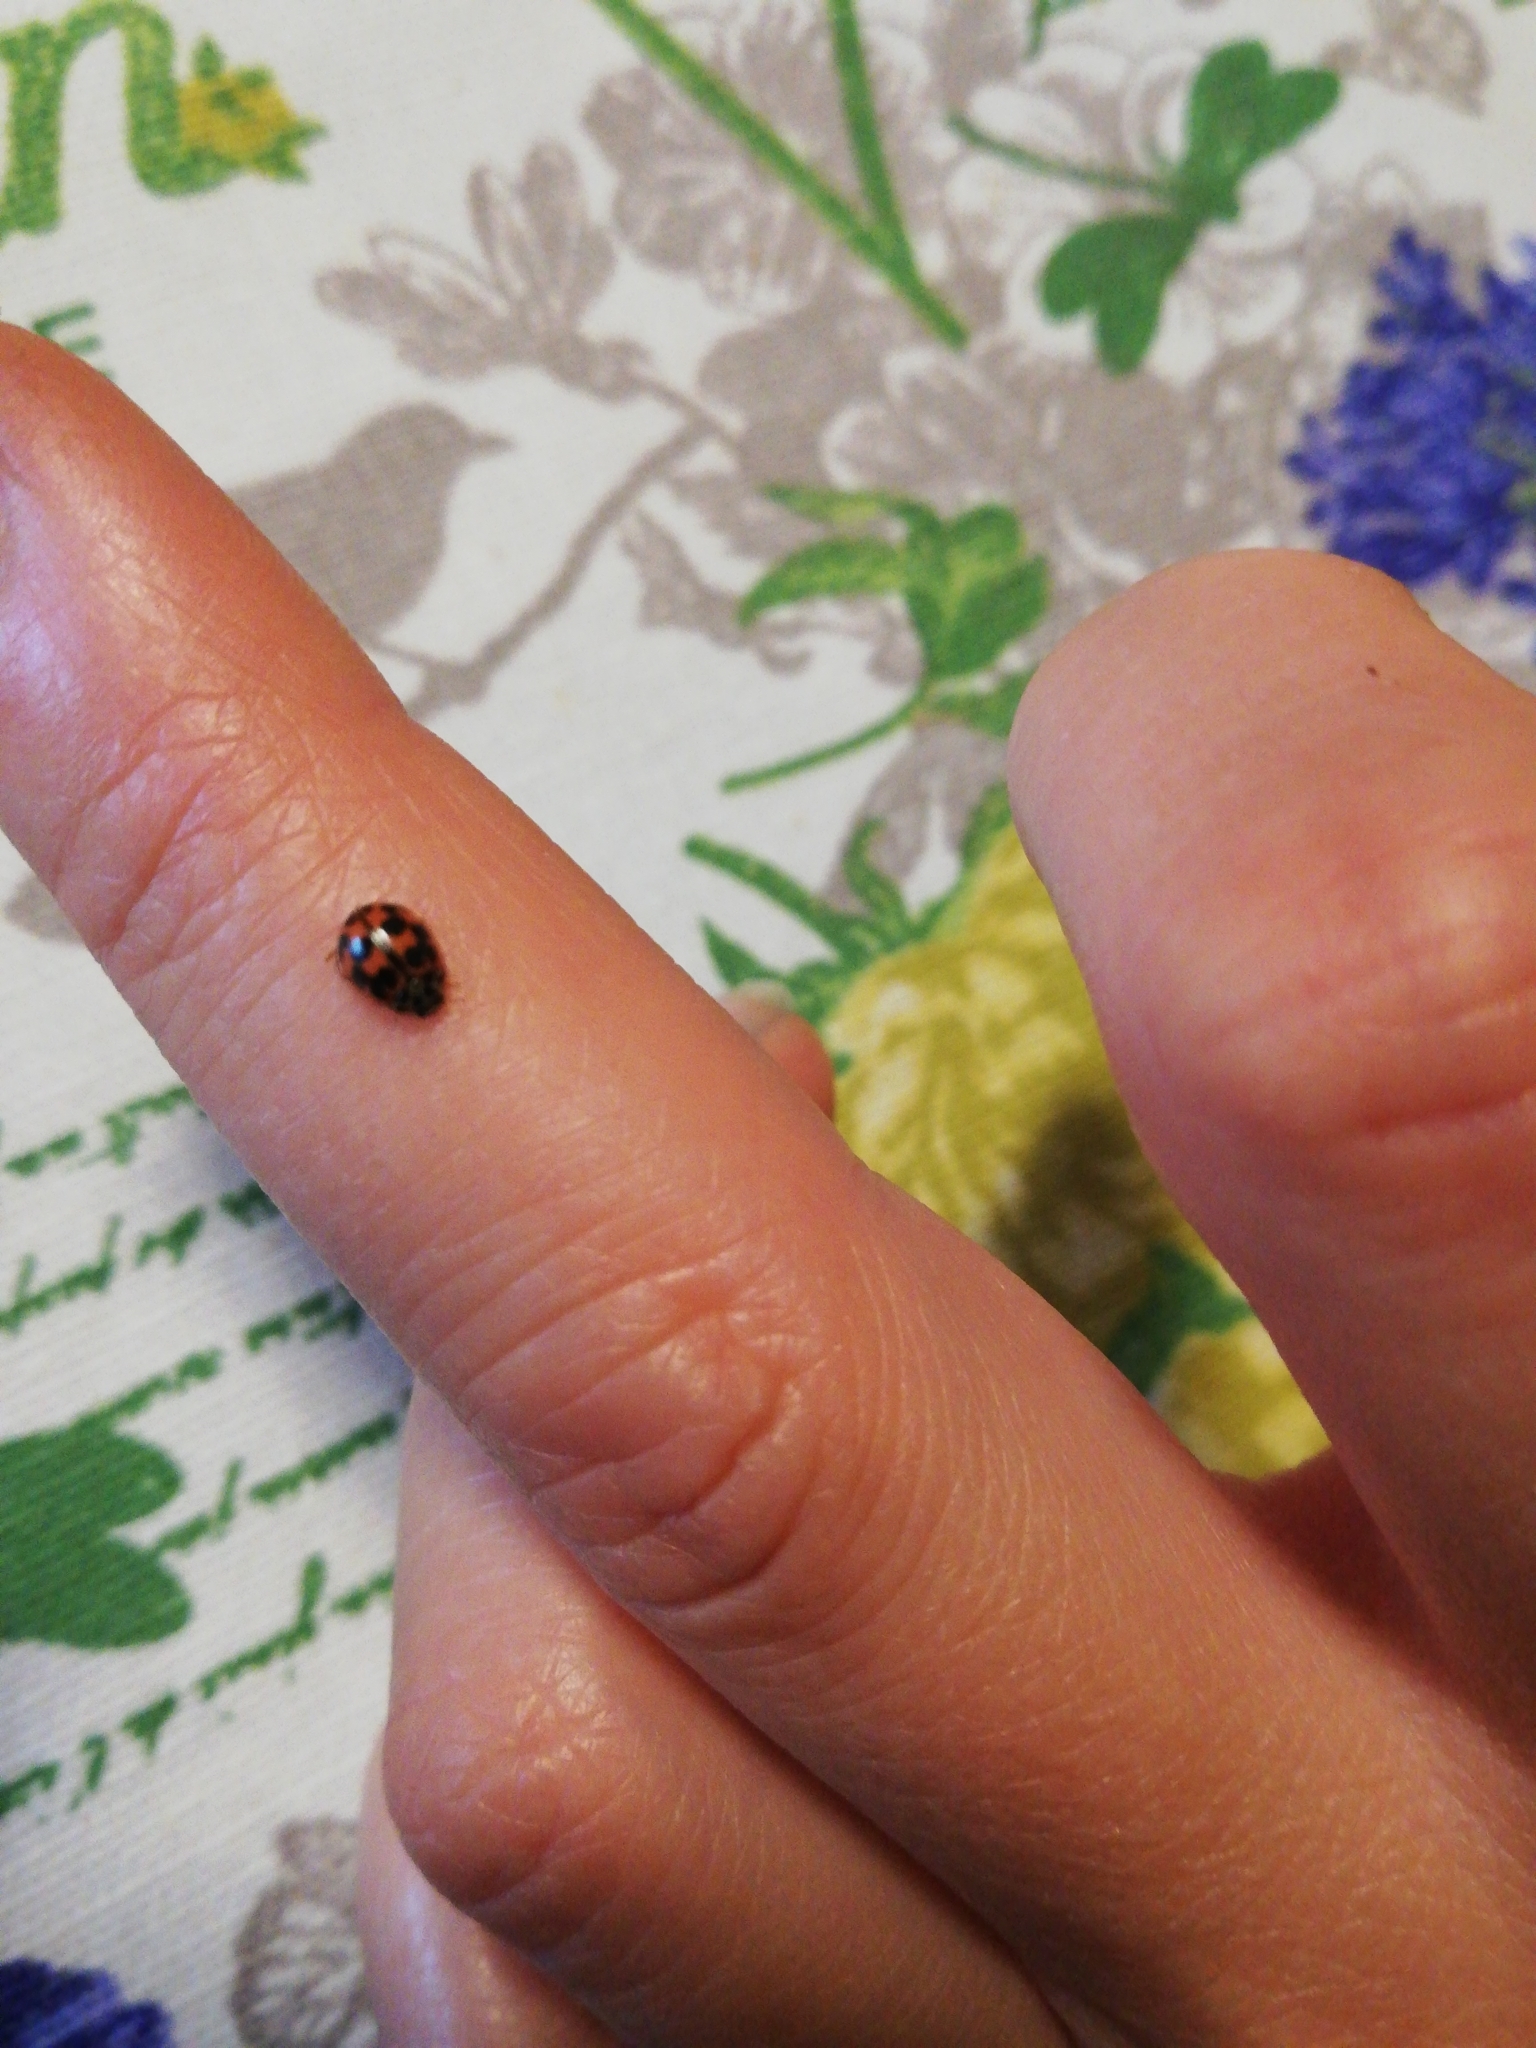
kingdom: Animalia
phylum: Arthropoda
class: Insecta
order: Coleoptera
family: Coccinellidae
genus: Oenopia
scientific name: Oenopia conglobata
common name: Ladybird beetle
